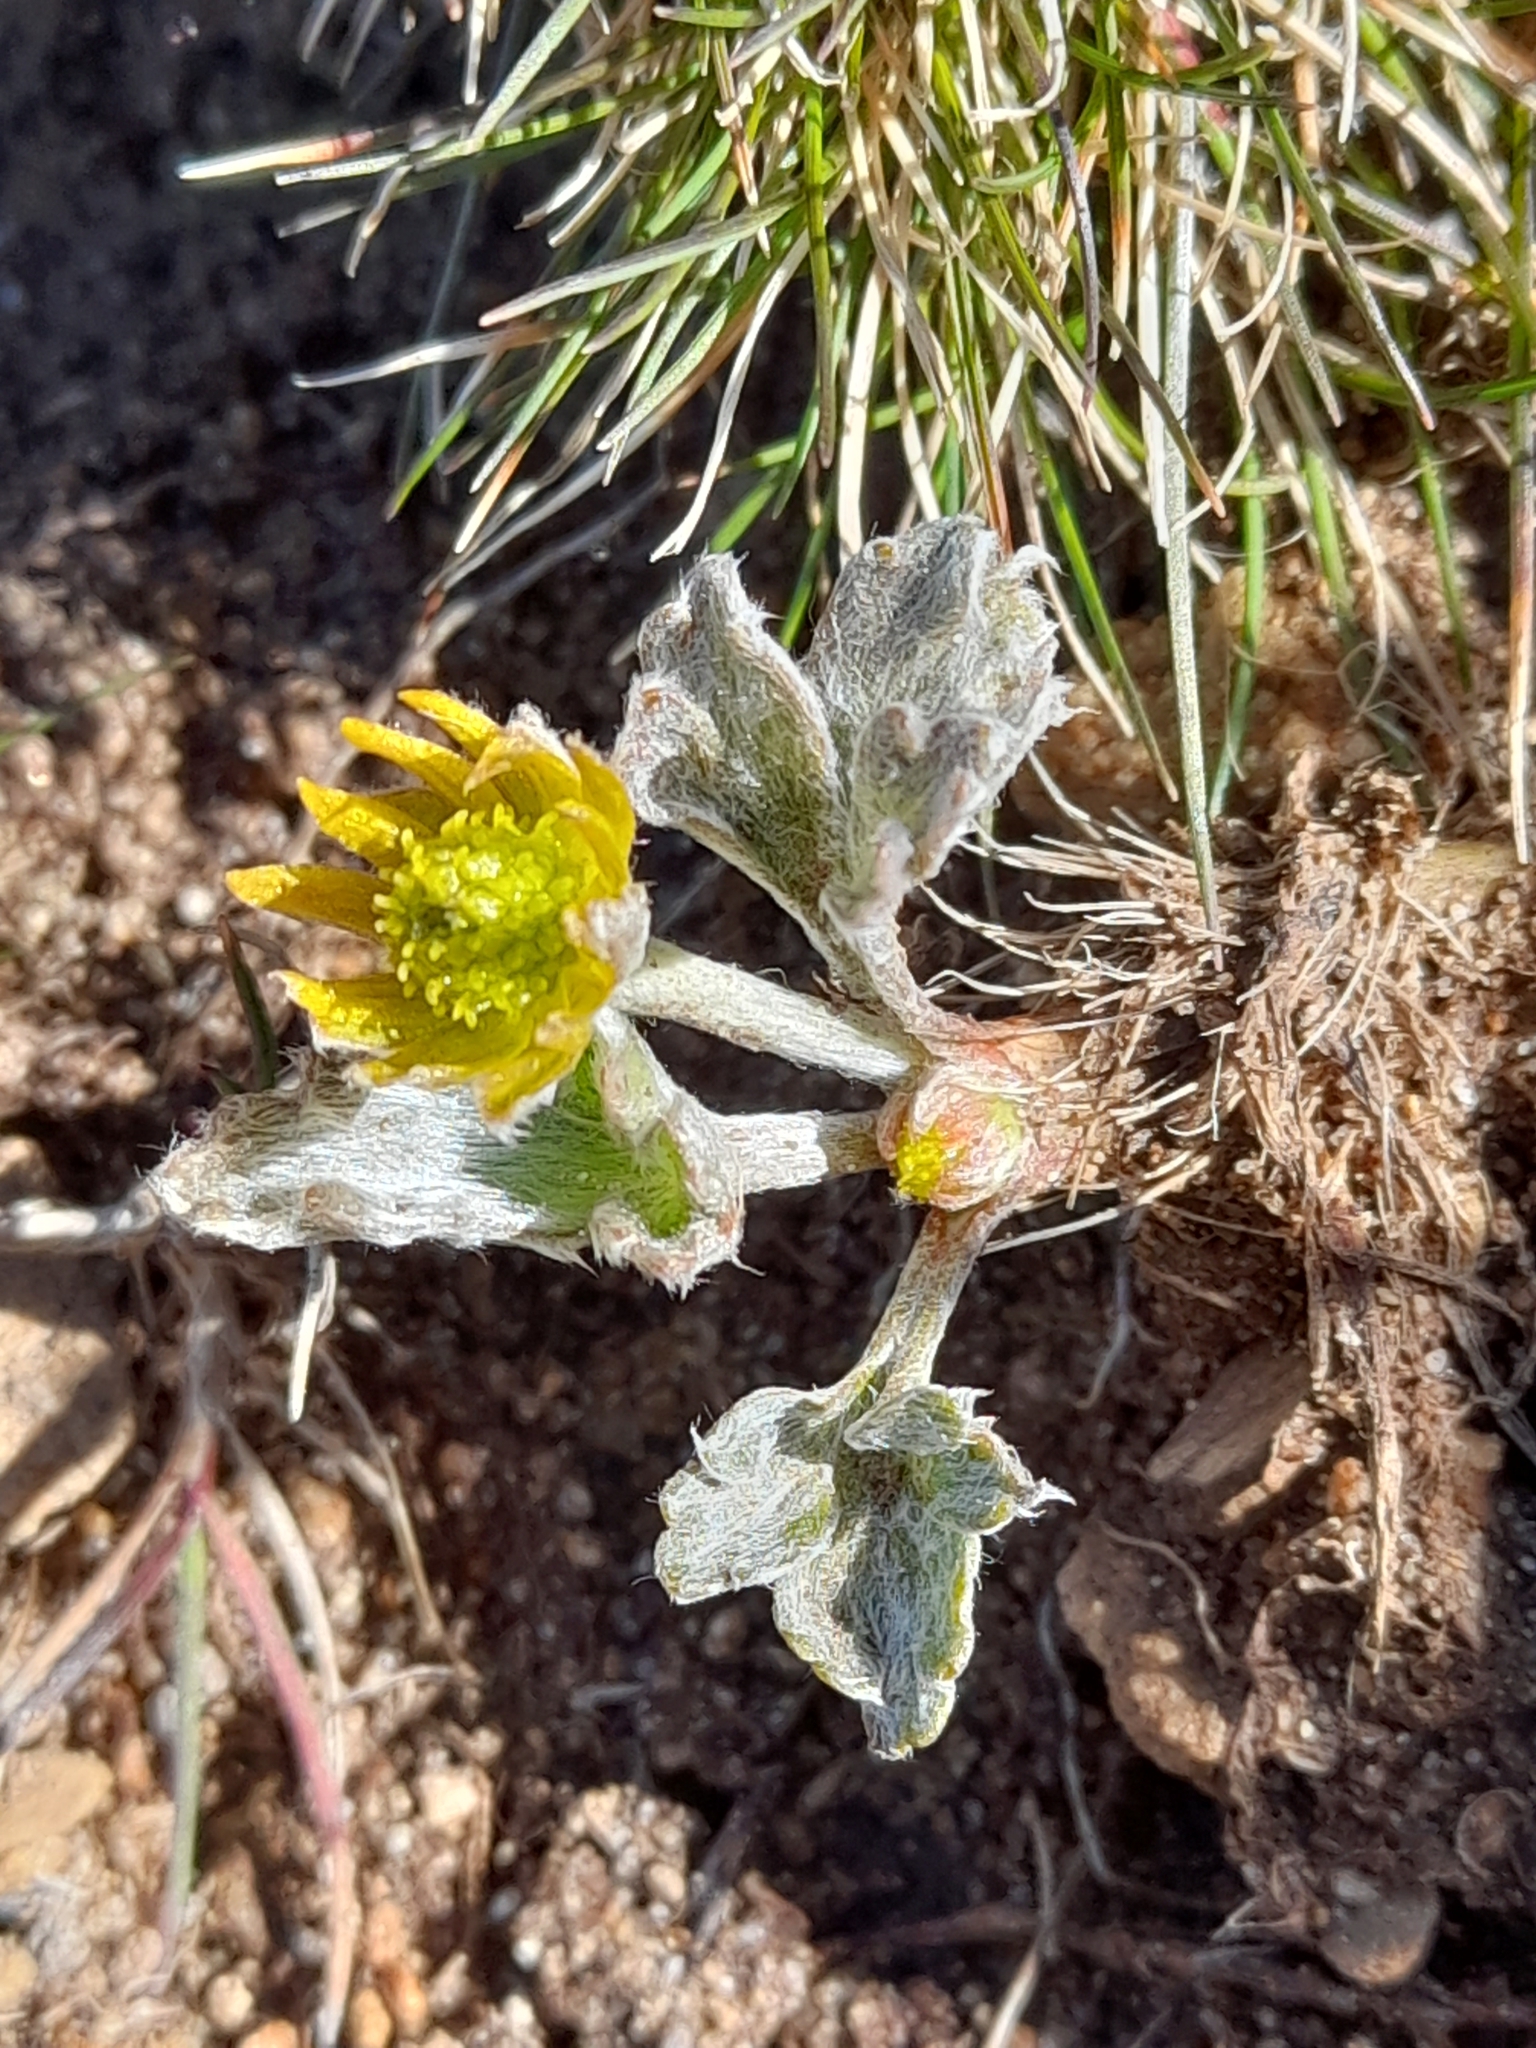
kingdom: Plantae
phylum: Tracheophyta
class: Magnoliopsida
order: Ranunculales
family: Ranunculaceae
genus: Hamadryas
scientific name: Hamadryas argentea
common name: Silvery buttercup
